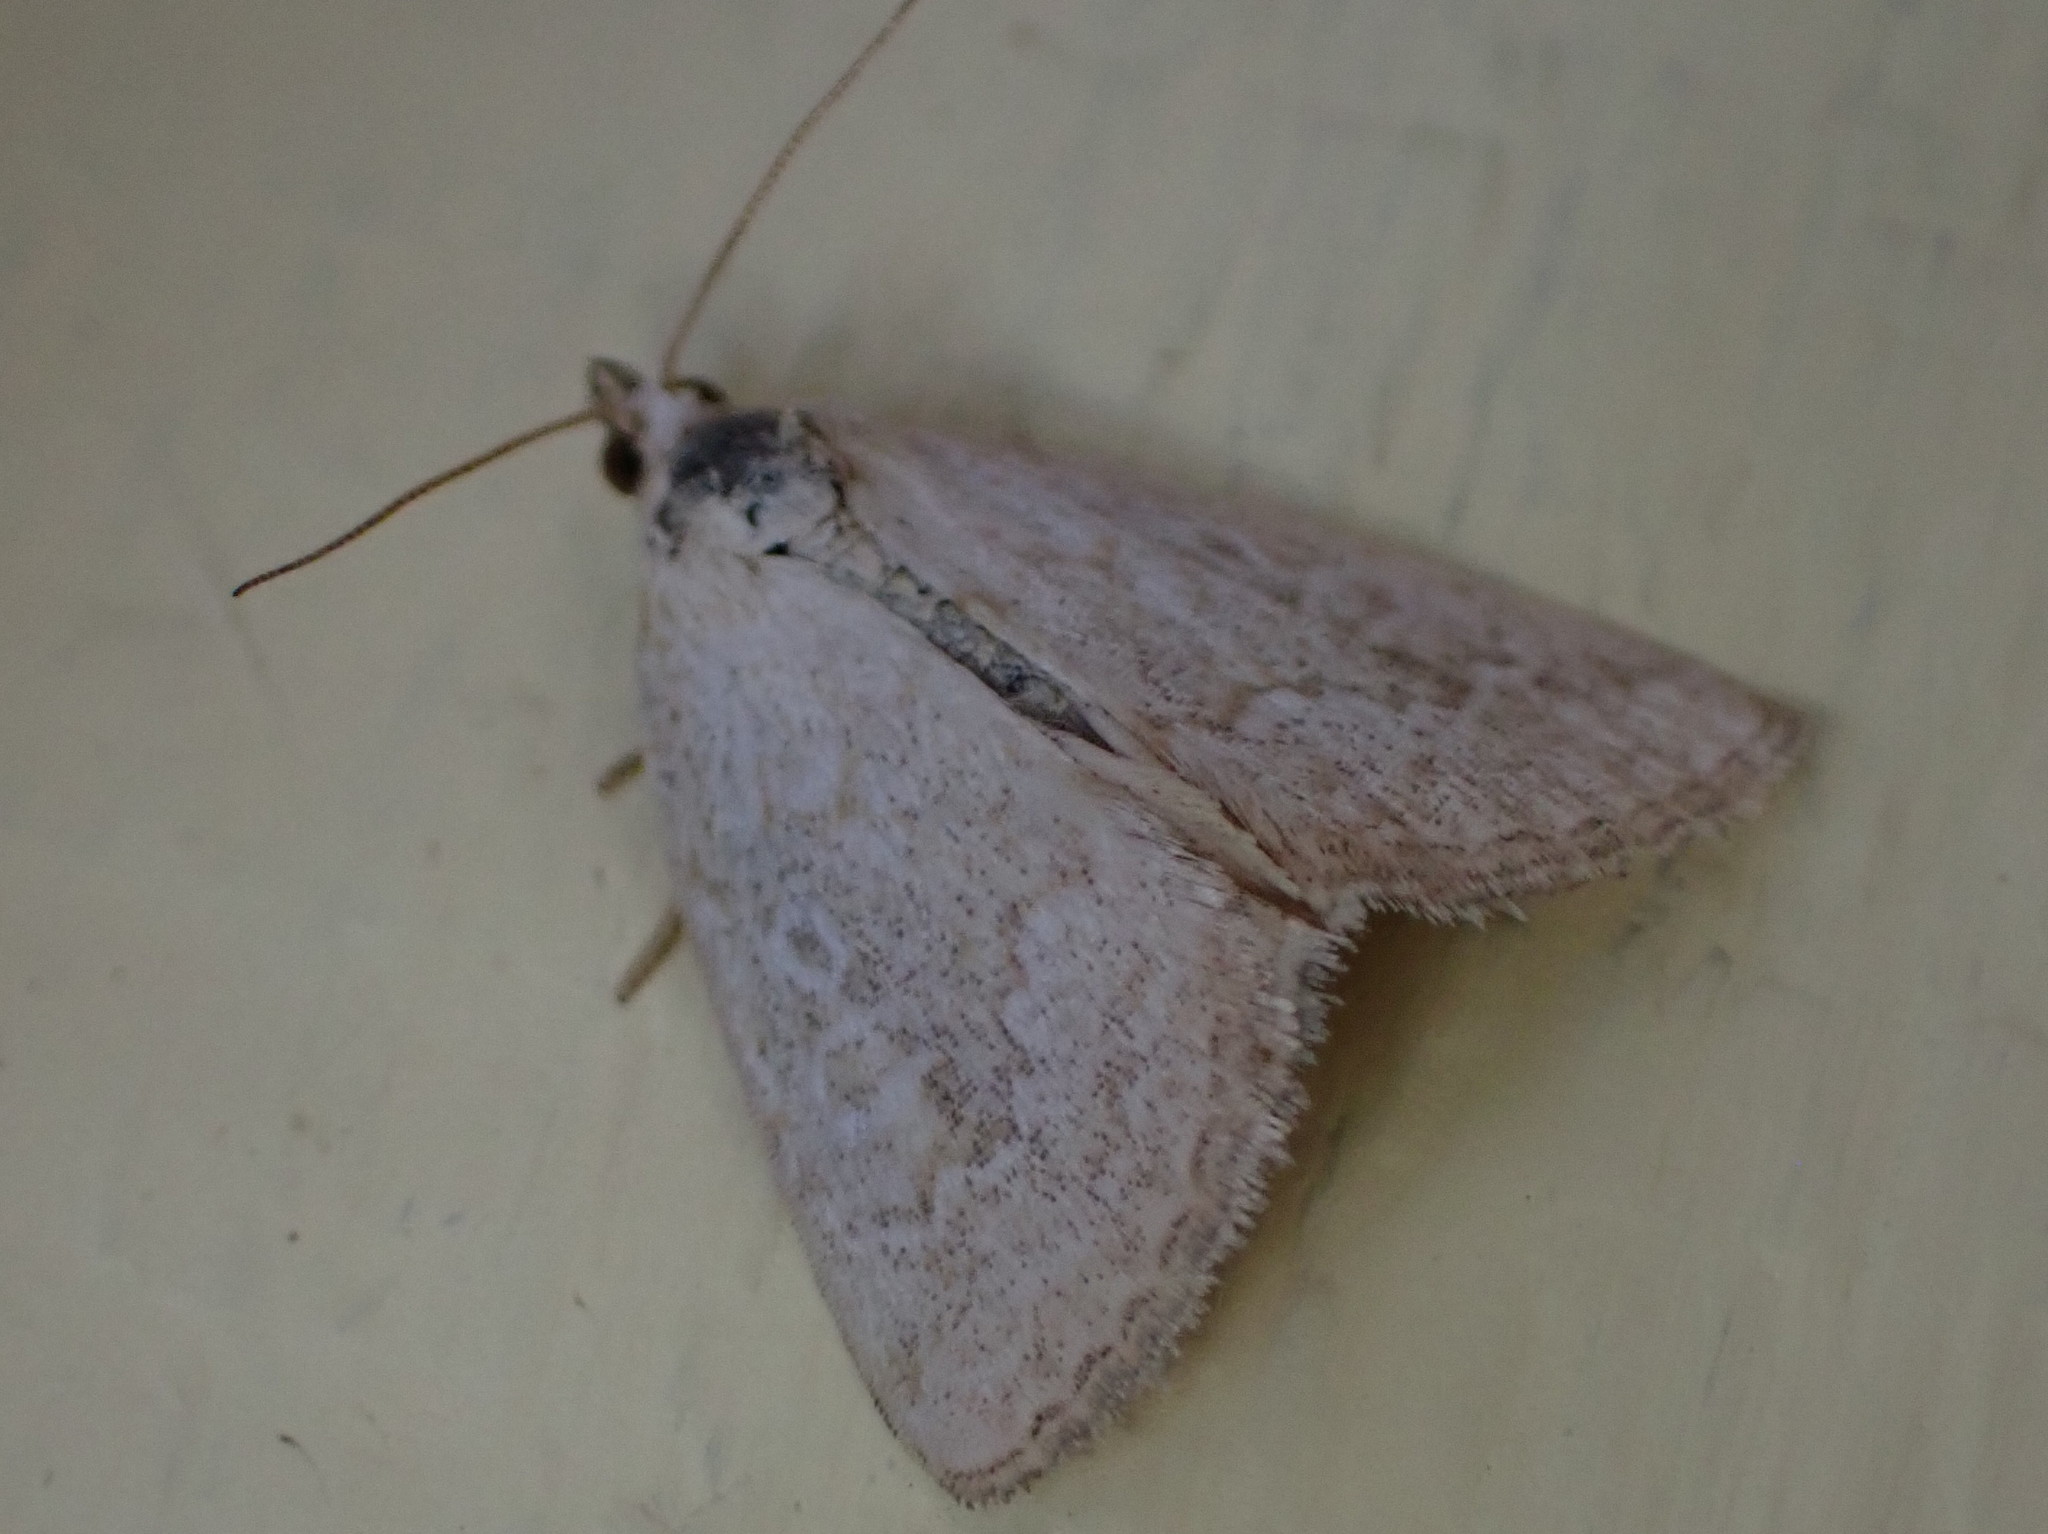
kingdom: Animalia
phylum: Arthropoda
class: Insecta
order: Lepidoptera
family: Noctuidae
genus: Protodeltote
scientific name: Protodeltote albidula
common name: Pale glyph
